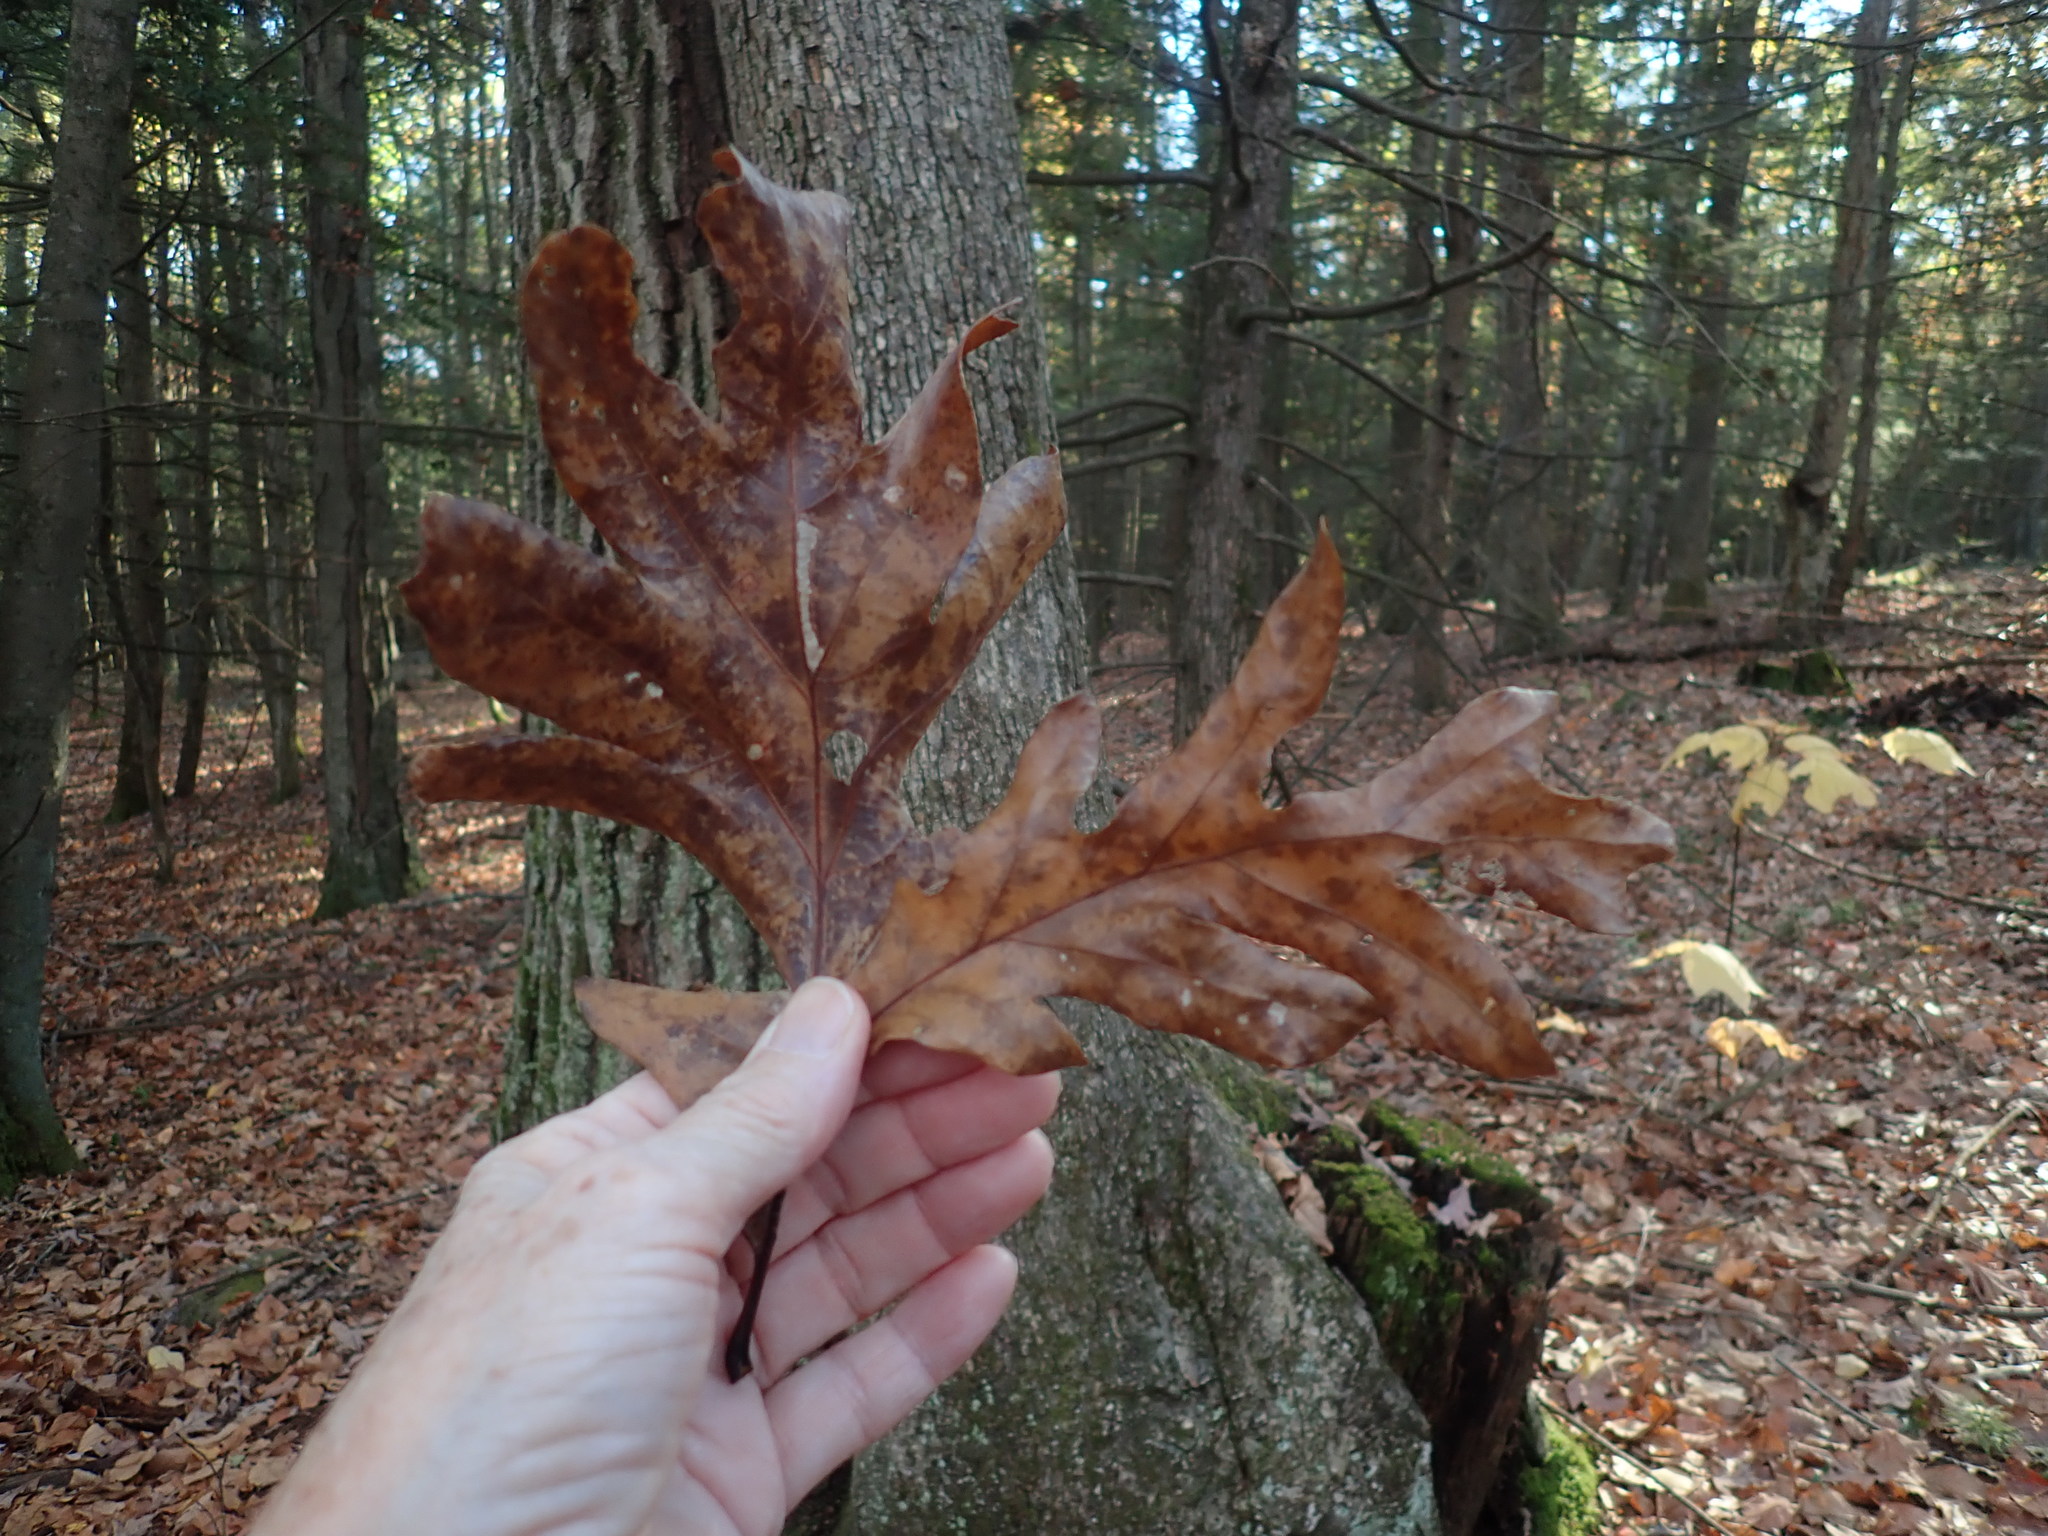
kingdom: Plantae
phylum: Tracheophyta
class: Magnoliopsida
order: Fagales
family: Fagaceae
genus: Quercus
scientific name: Quercus alba
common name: White oak
